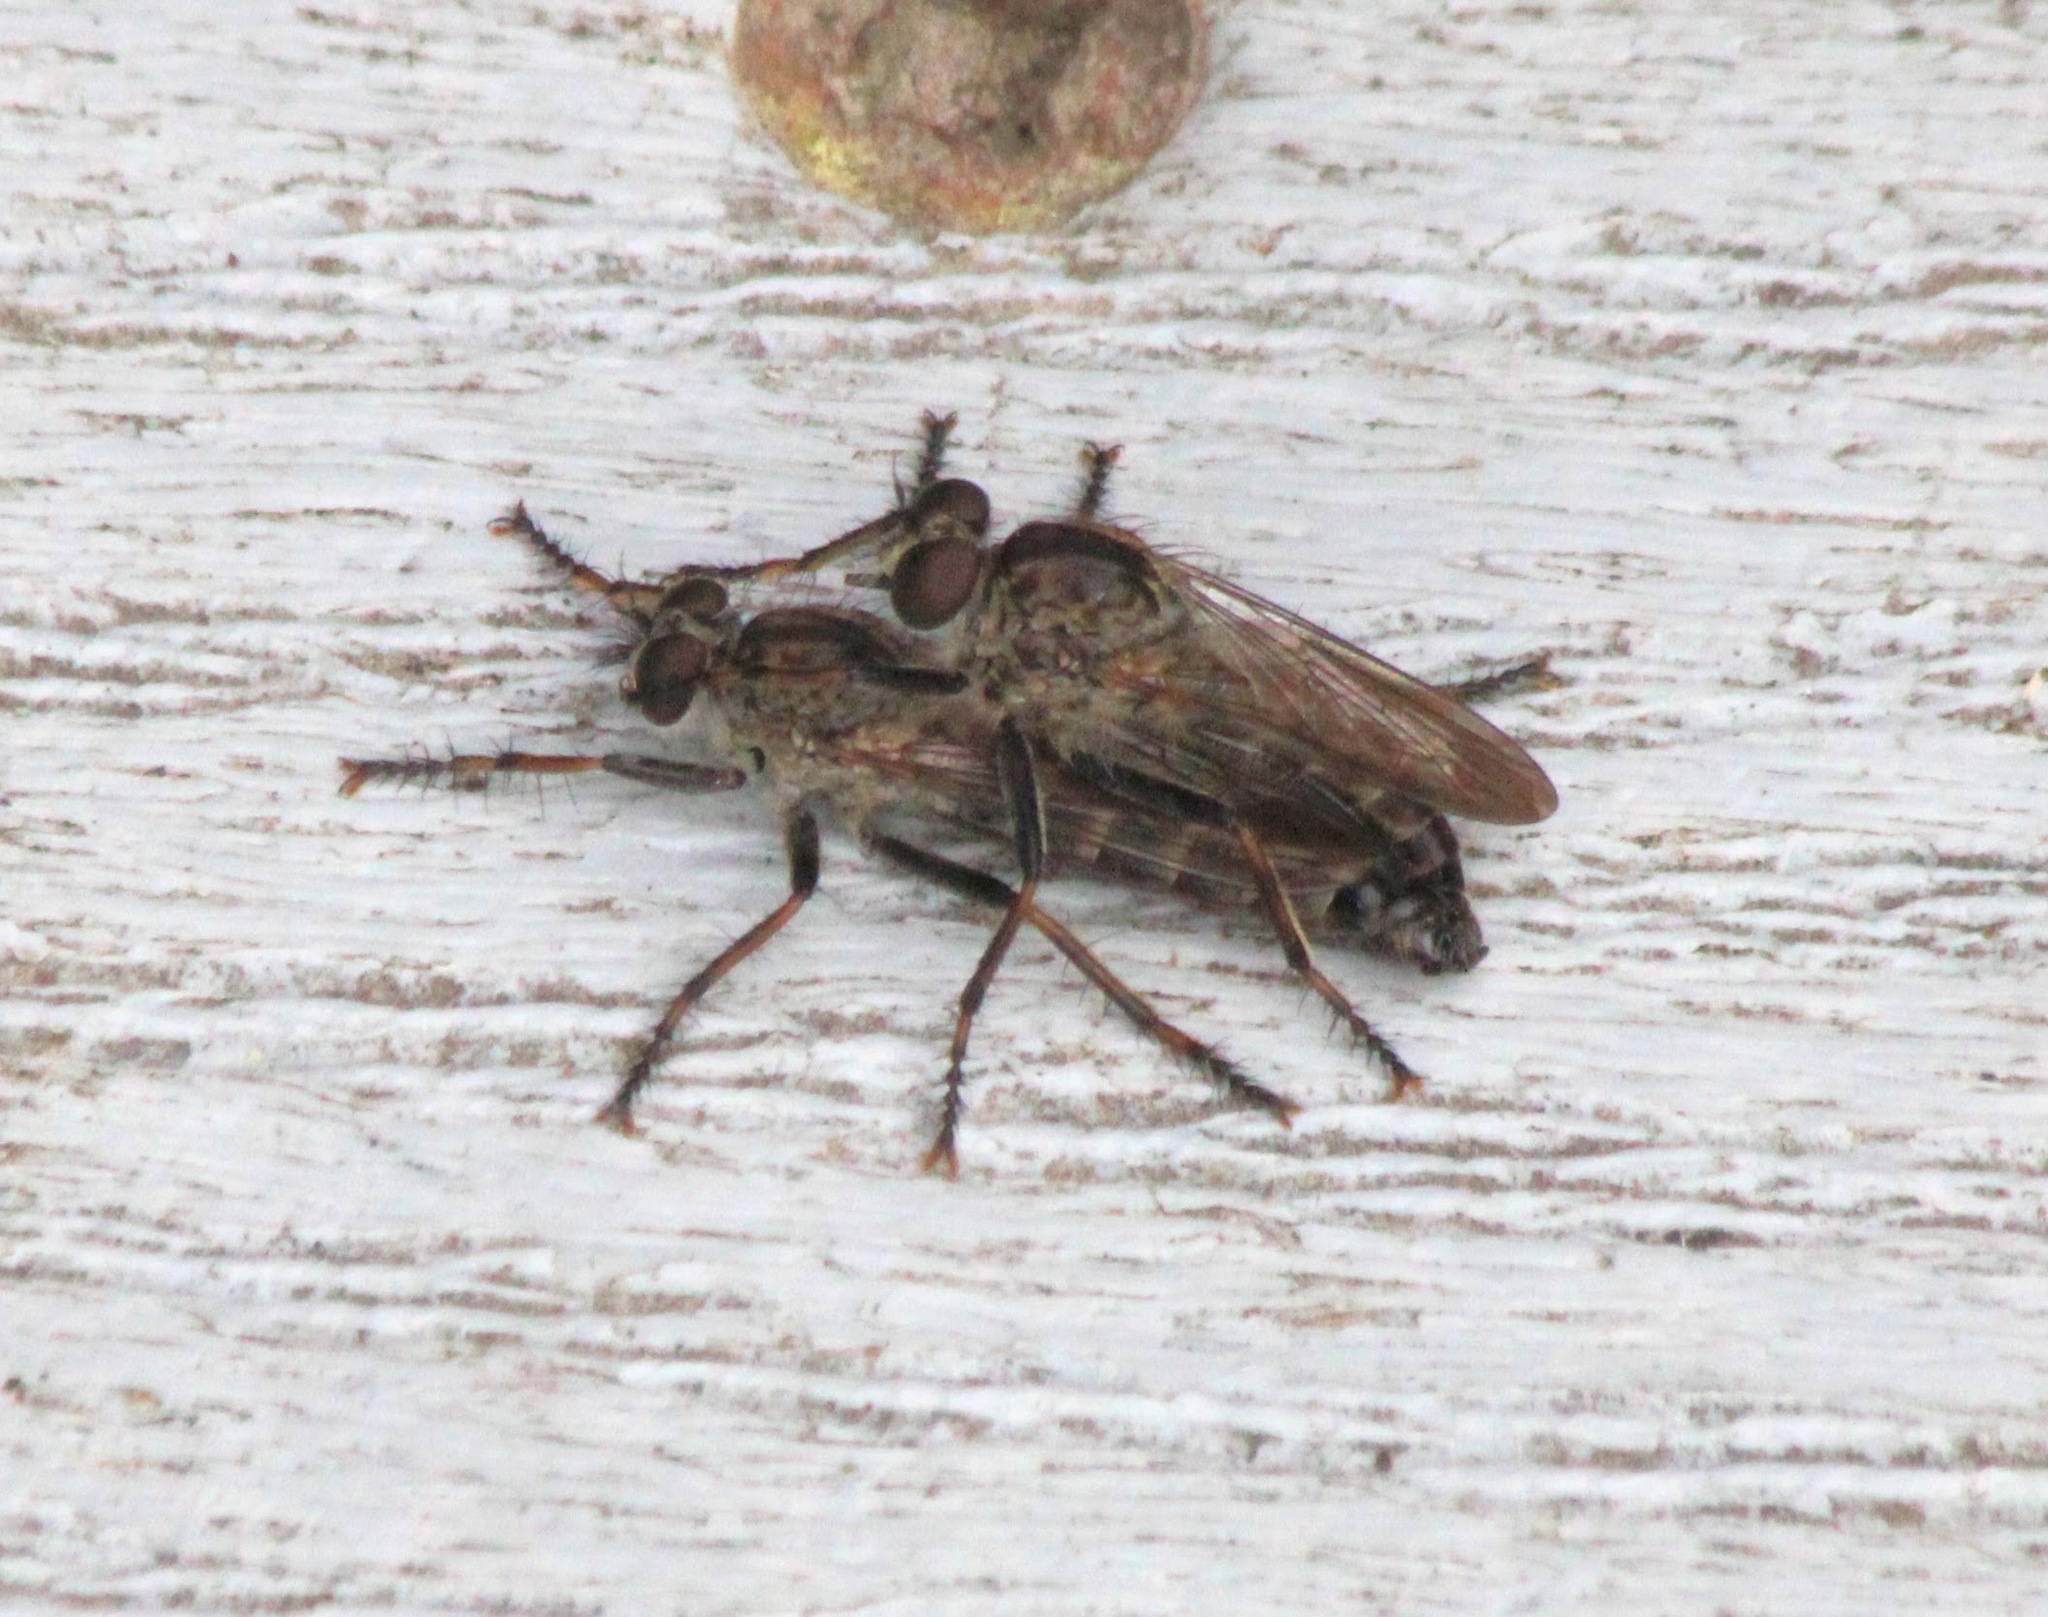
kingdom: Animalia
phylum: Arthropoda
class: Insecta
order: Diptera
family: Asilidae
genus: Machimus
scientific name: Machimus sadyates
